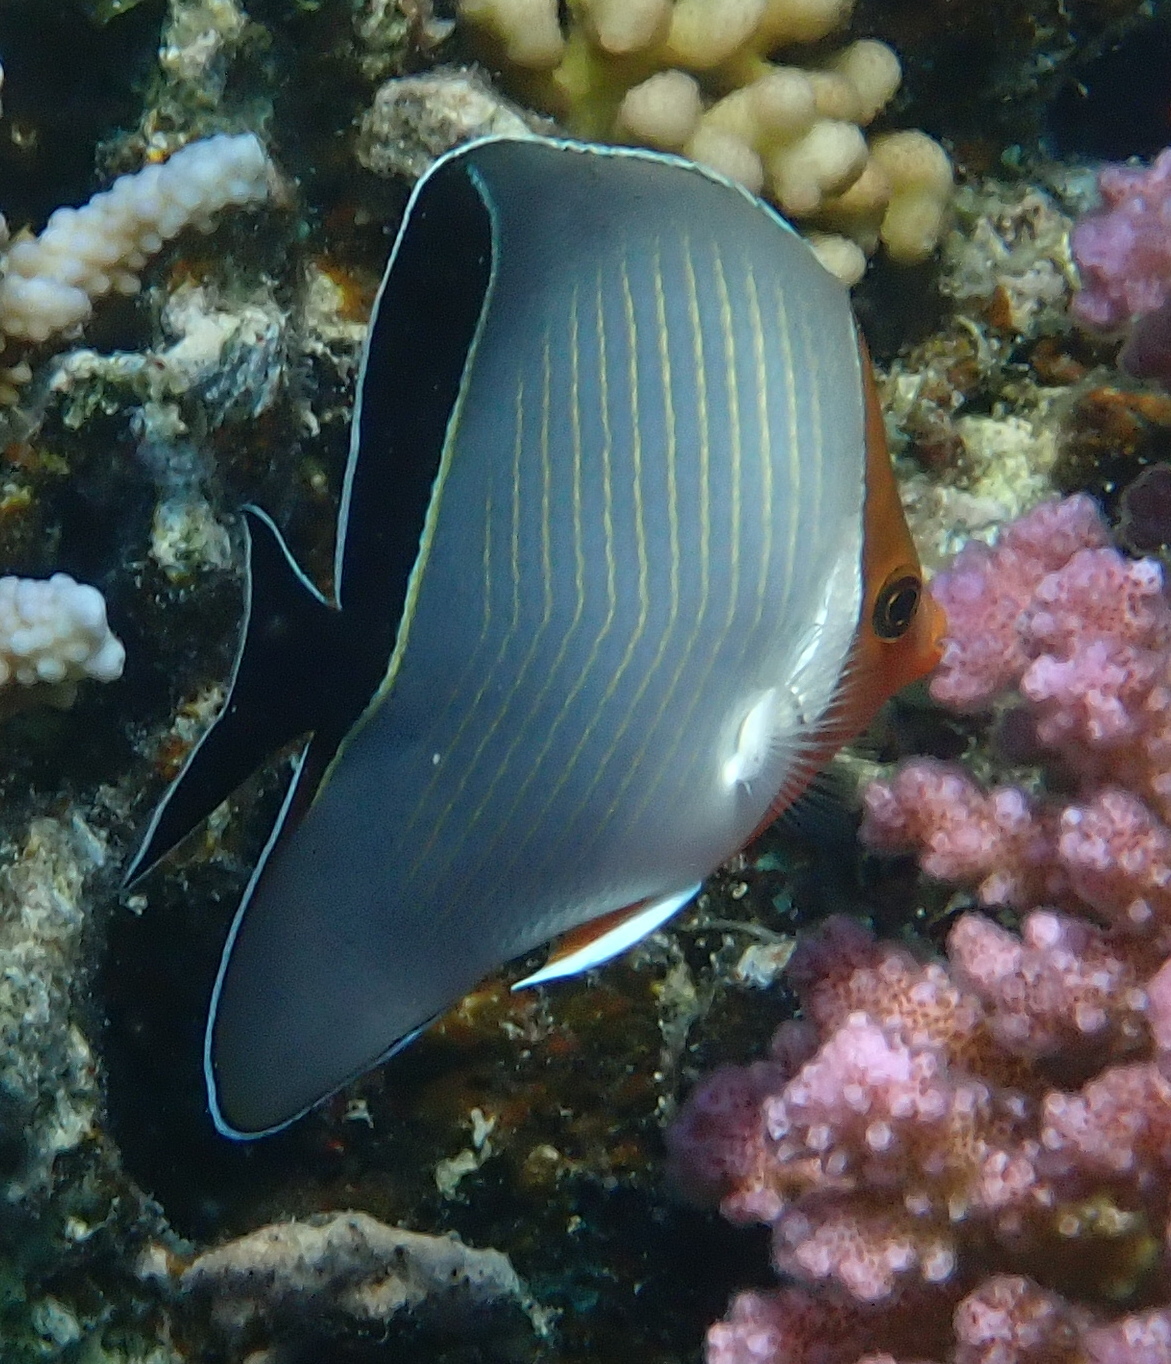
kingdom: Animalia
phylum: Chordata
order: Perciformes
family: Chaetodontidae
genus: Chaetodon
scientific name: Chaetodon larvatus
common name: Hooded butterflyfish
